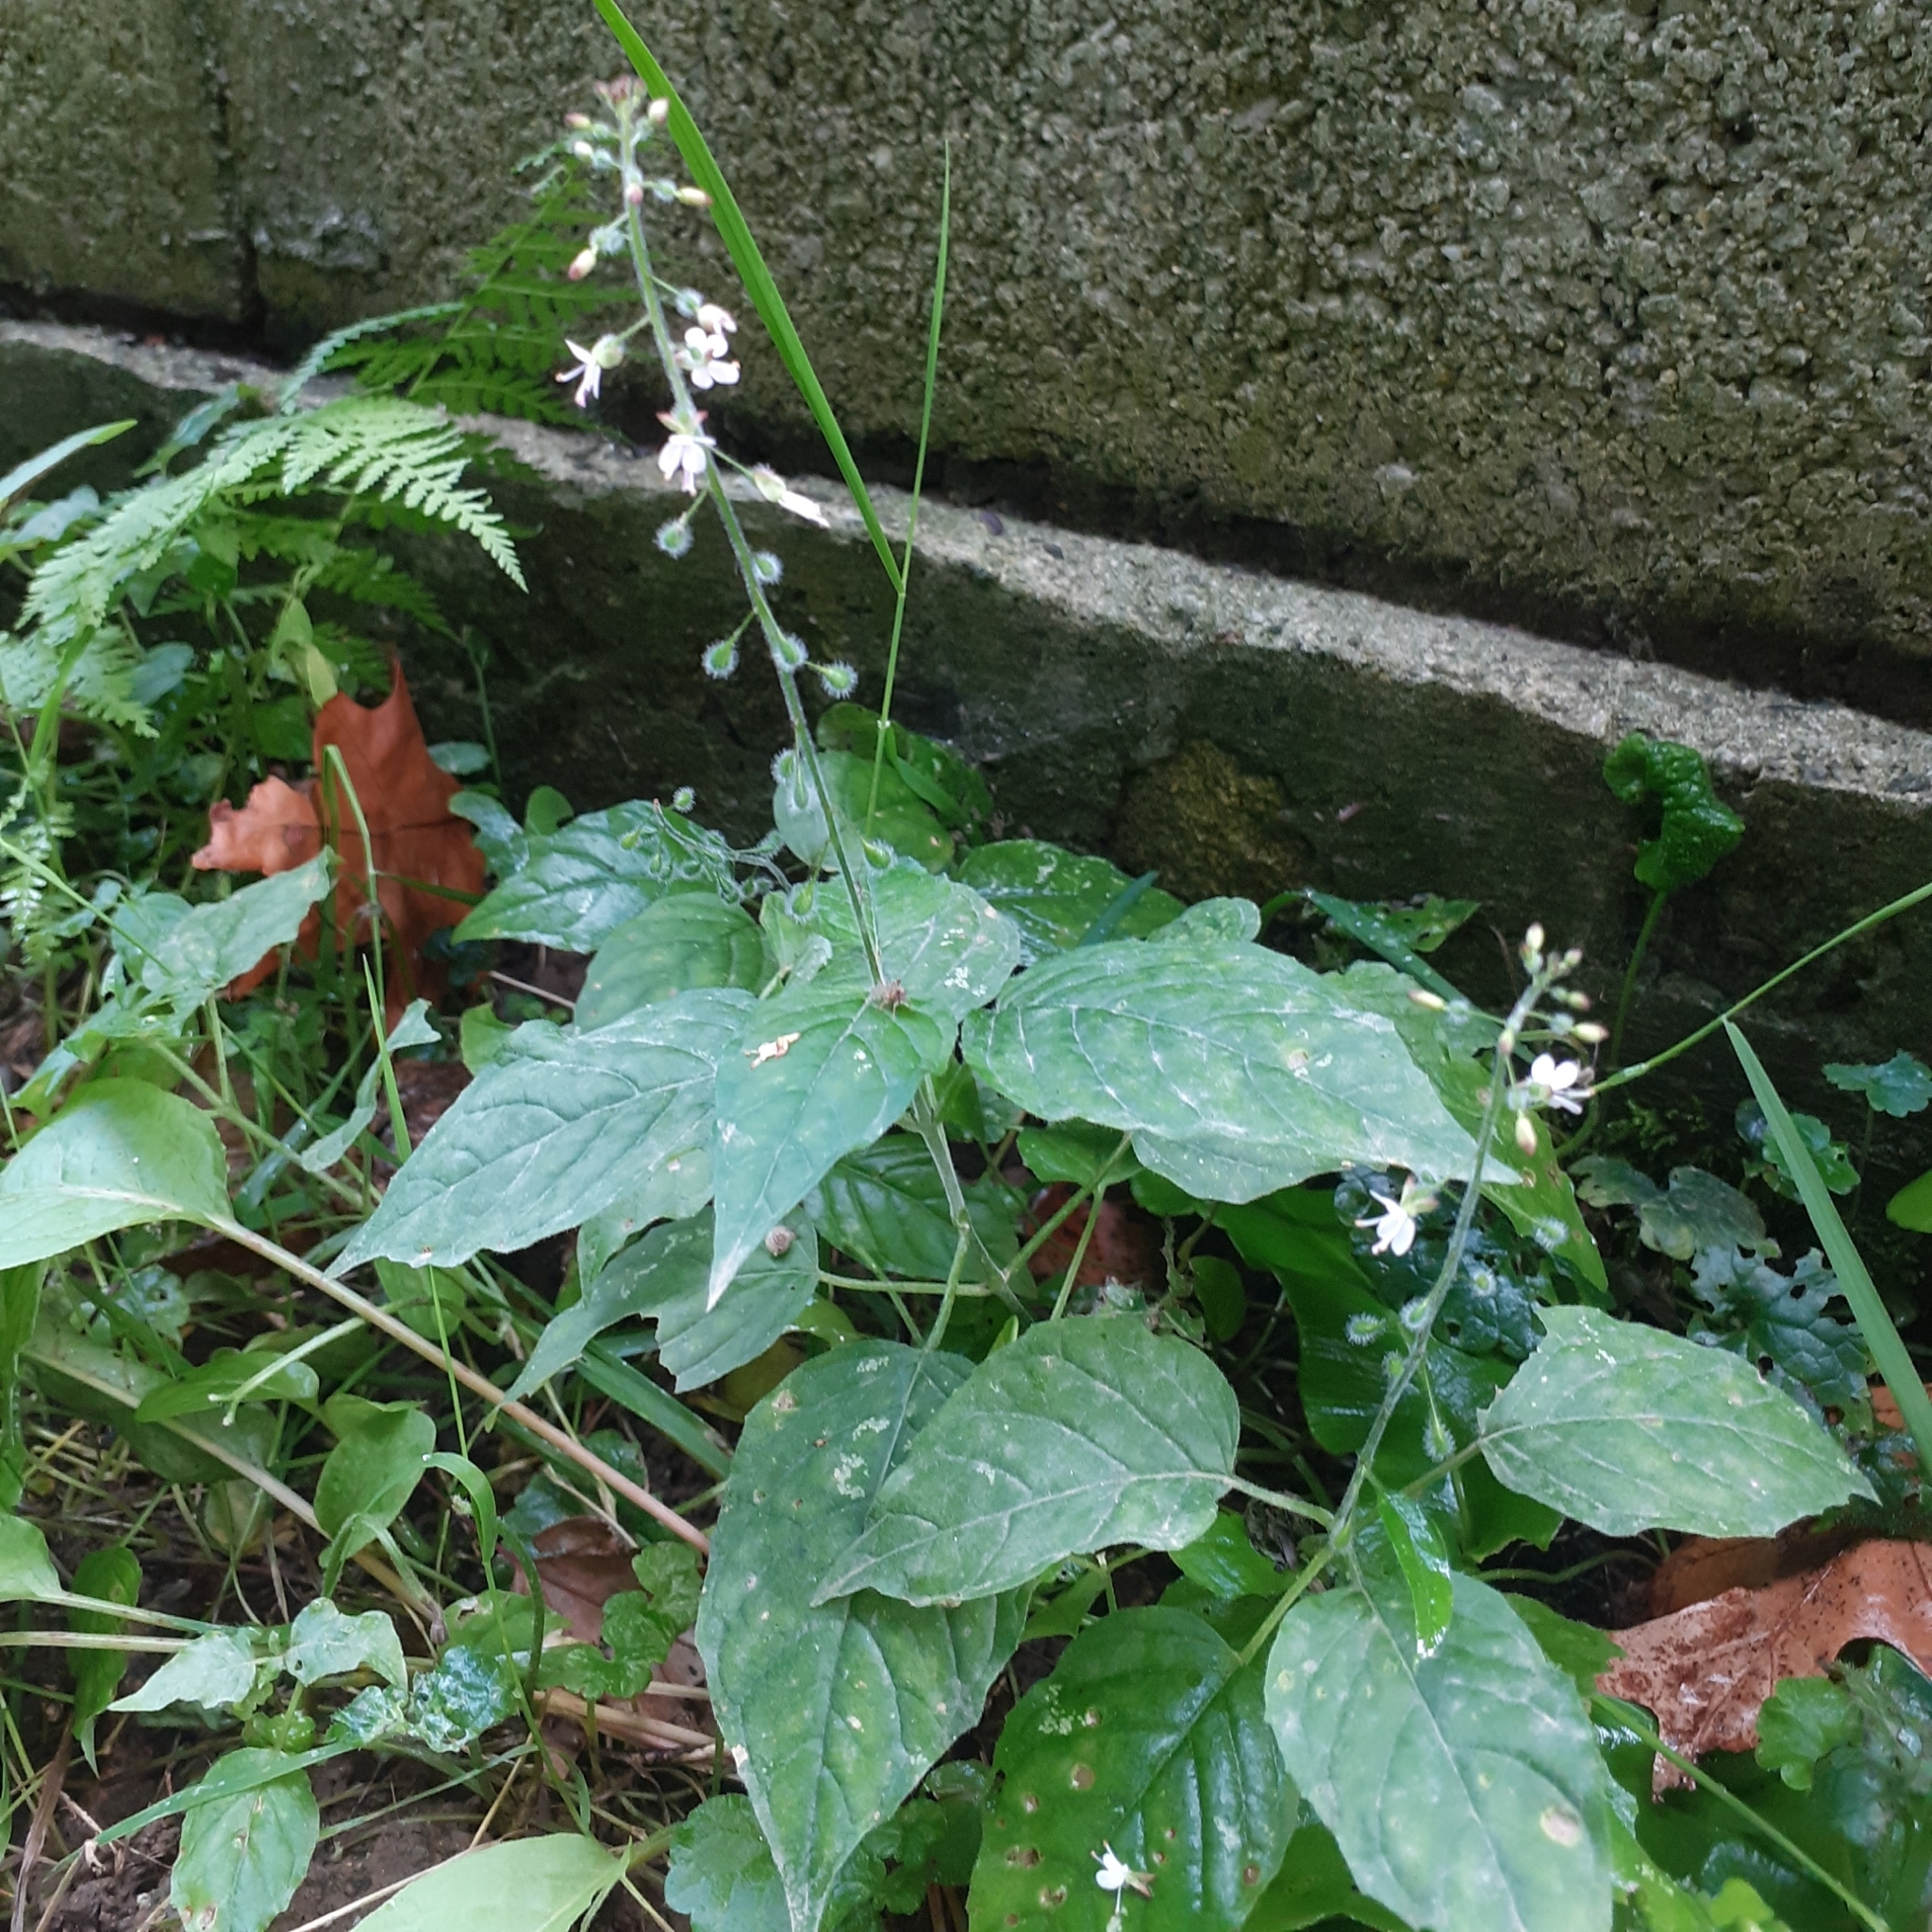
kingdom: Plantae
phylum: Tracheophyta
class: Magnoliopsida
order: Myrtales
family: Onagraceae
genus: Circaea
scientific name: Circaea lutetiana
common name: Enchanter's-nightshade
